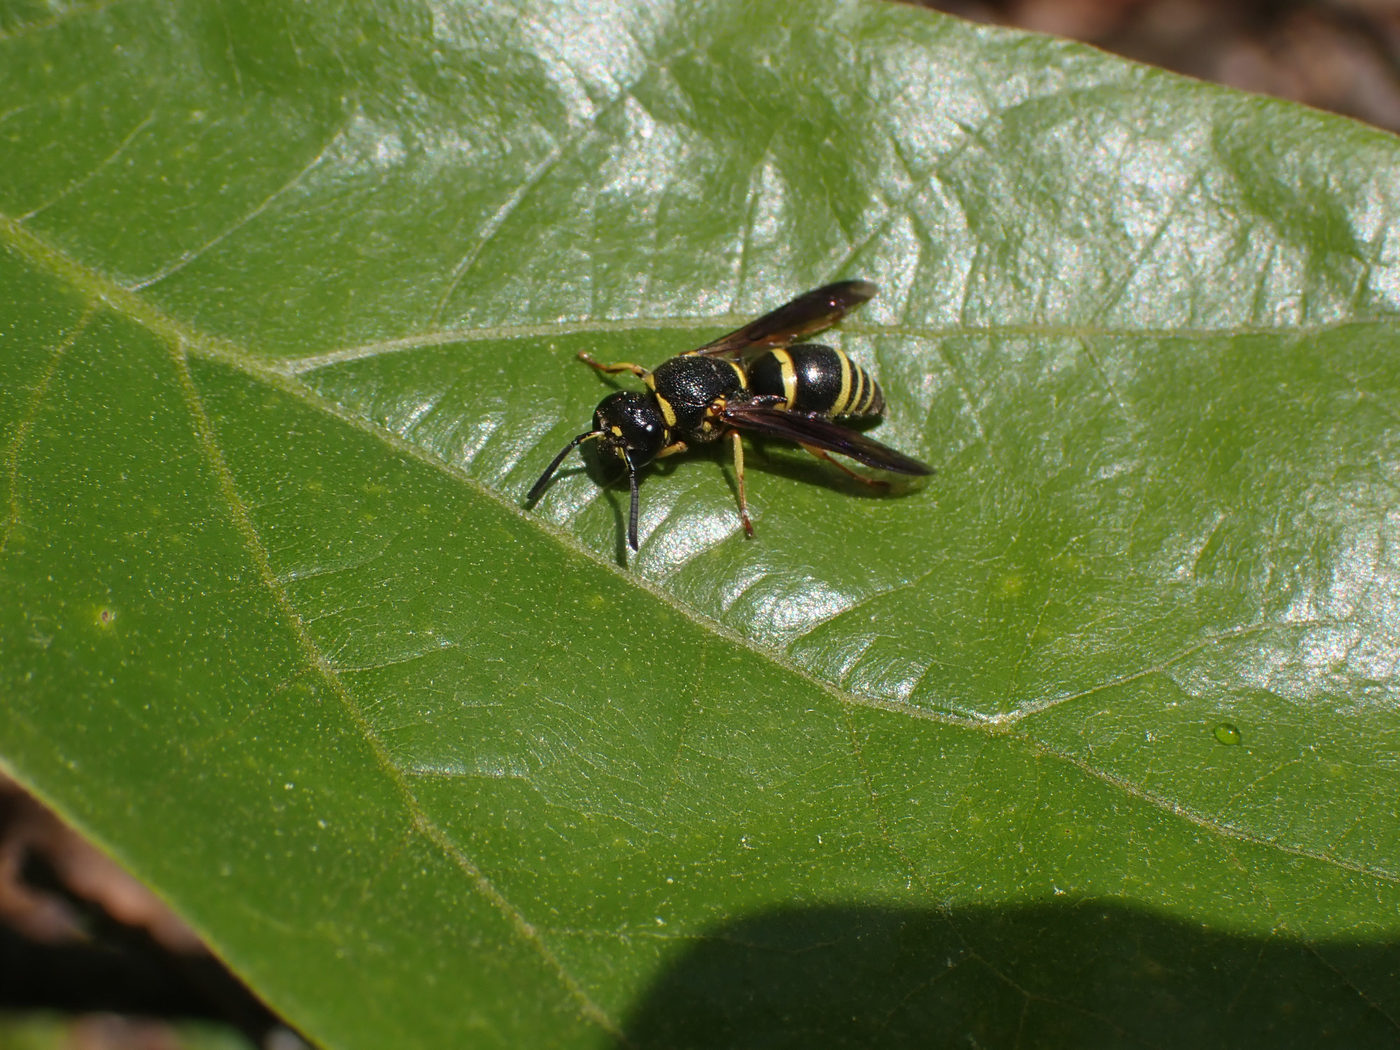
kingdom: Animalia
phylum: Arthropoda
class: Insecta
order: Hymenoptera
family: Eumenidae
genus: Euodynerus
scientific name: Euodynerus foraminatus
